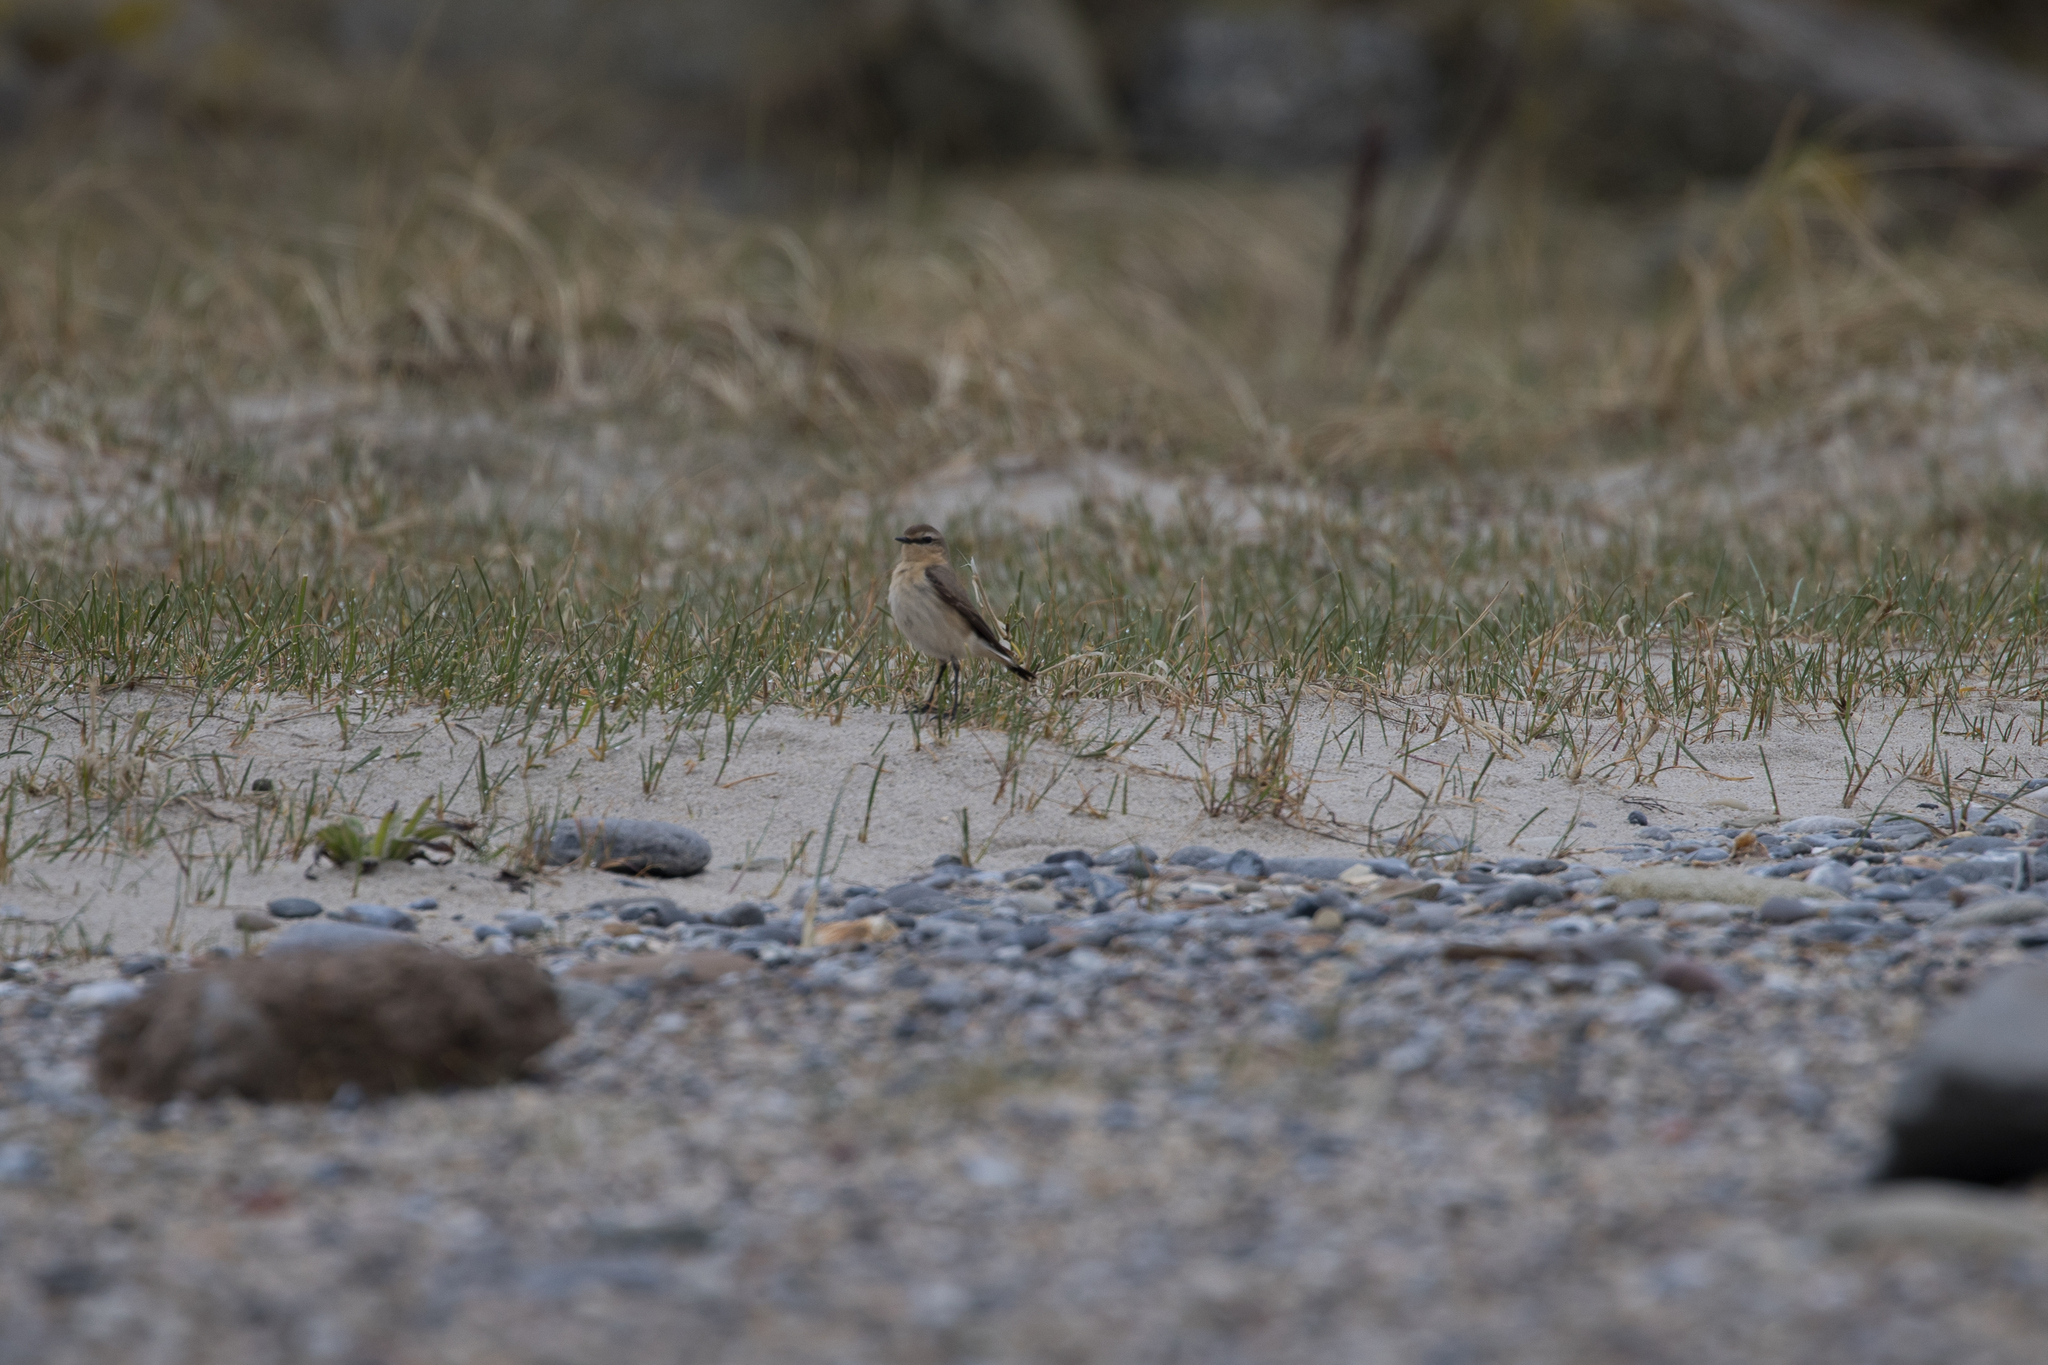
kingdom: Animalia
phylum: Chordata
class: Aves
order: Passeriformes
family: Muscicapidae
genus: Oenanthe
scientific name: Oenanthe oenanthe
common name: Northern wheatear
